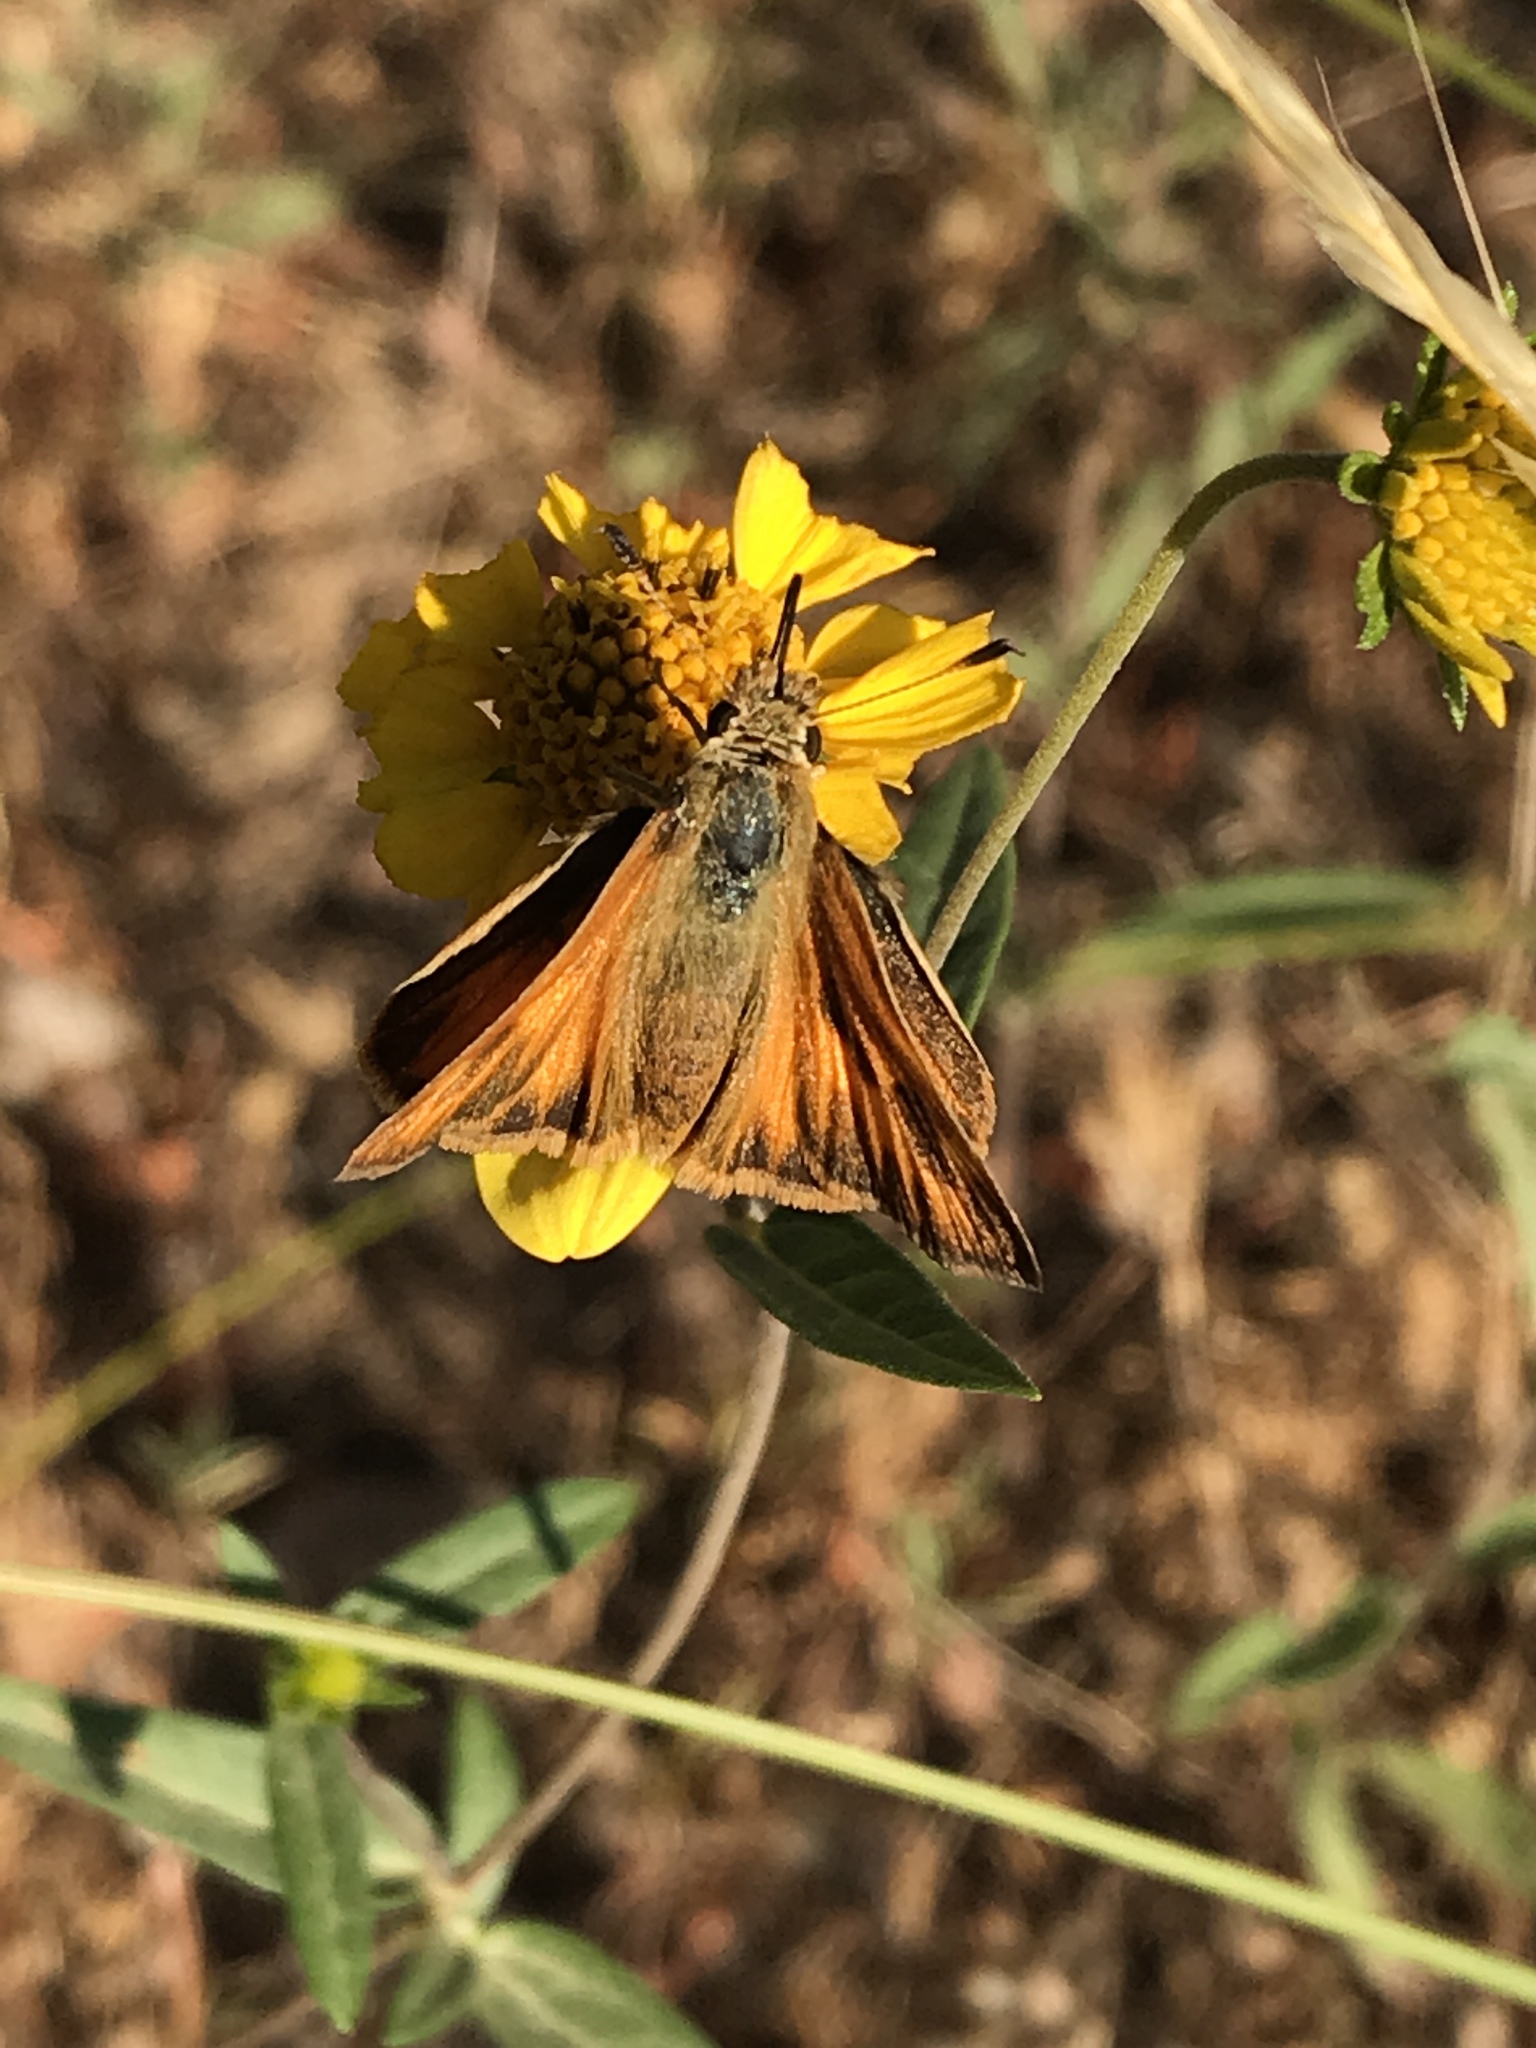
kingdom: Animalia
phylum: Arthropoda
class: Insecta
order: Lepidoptera
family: Hesperiidae
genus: Ochlodes
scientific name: Ochlodes sylvanoides
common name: Woodland skipper
